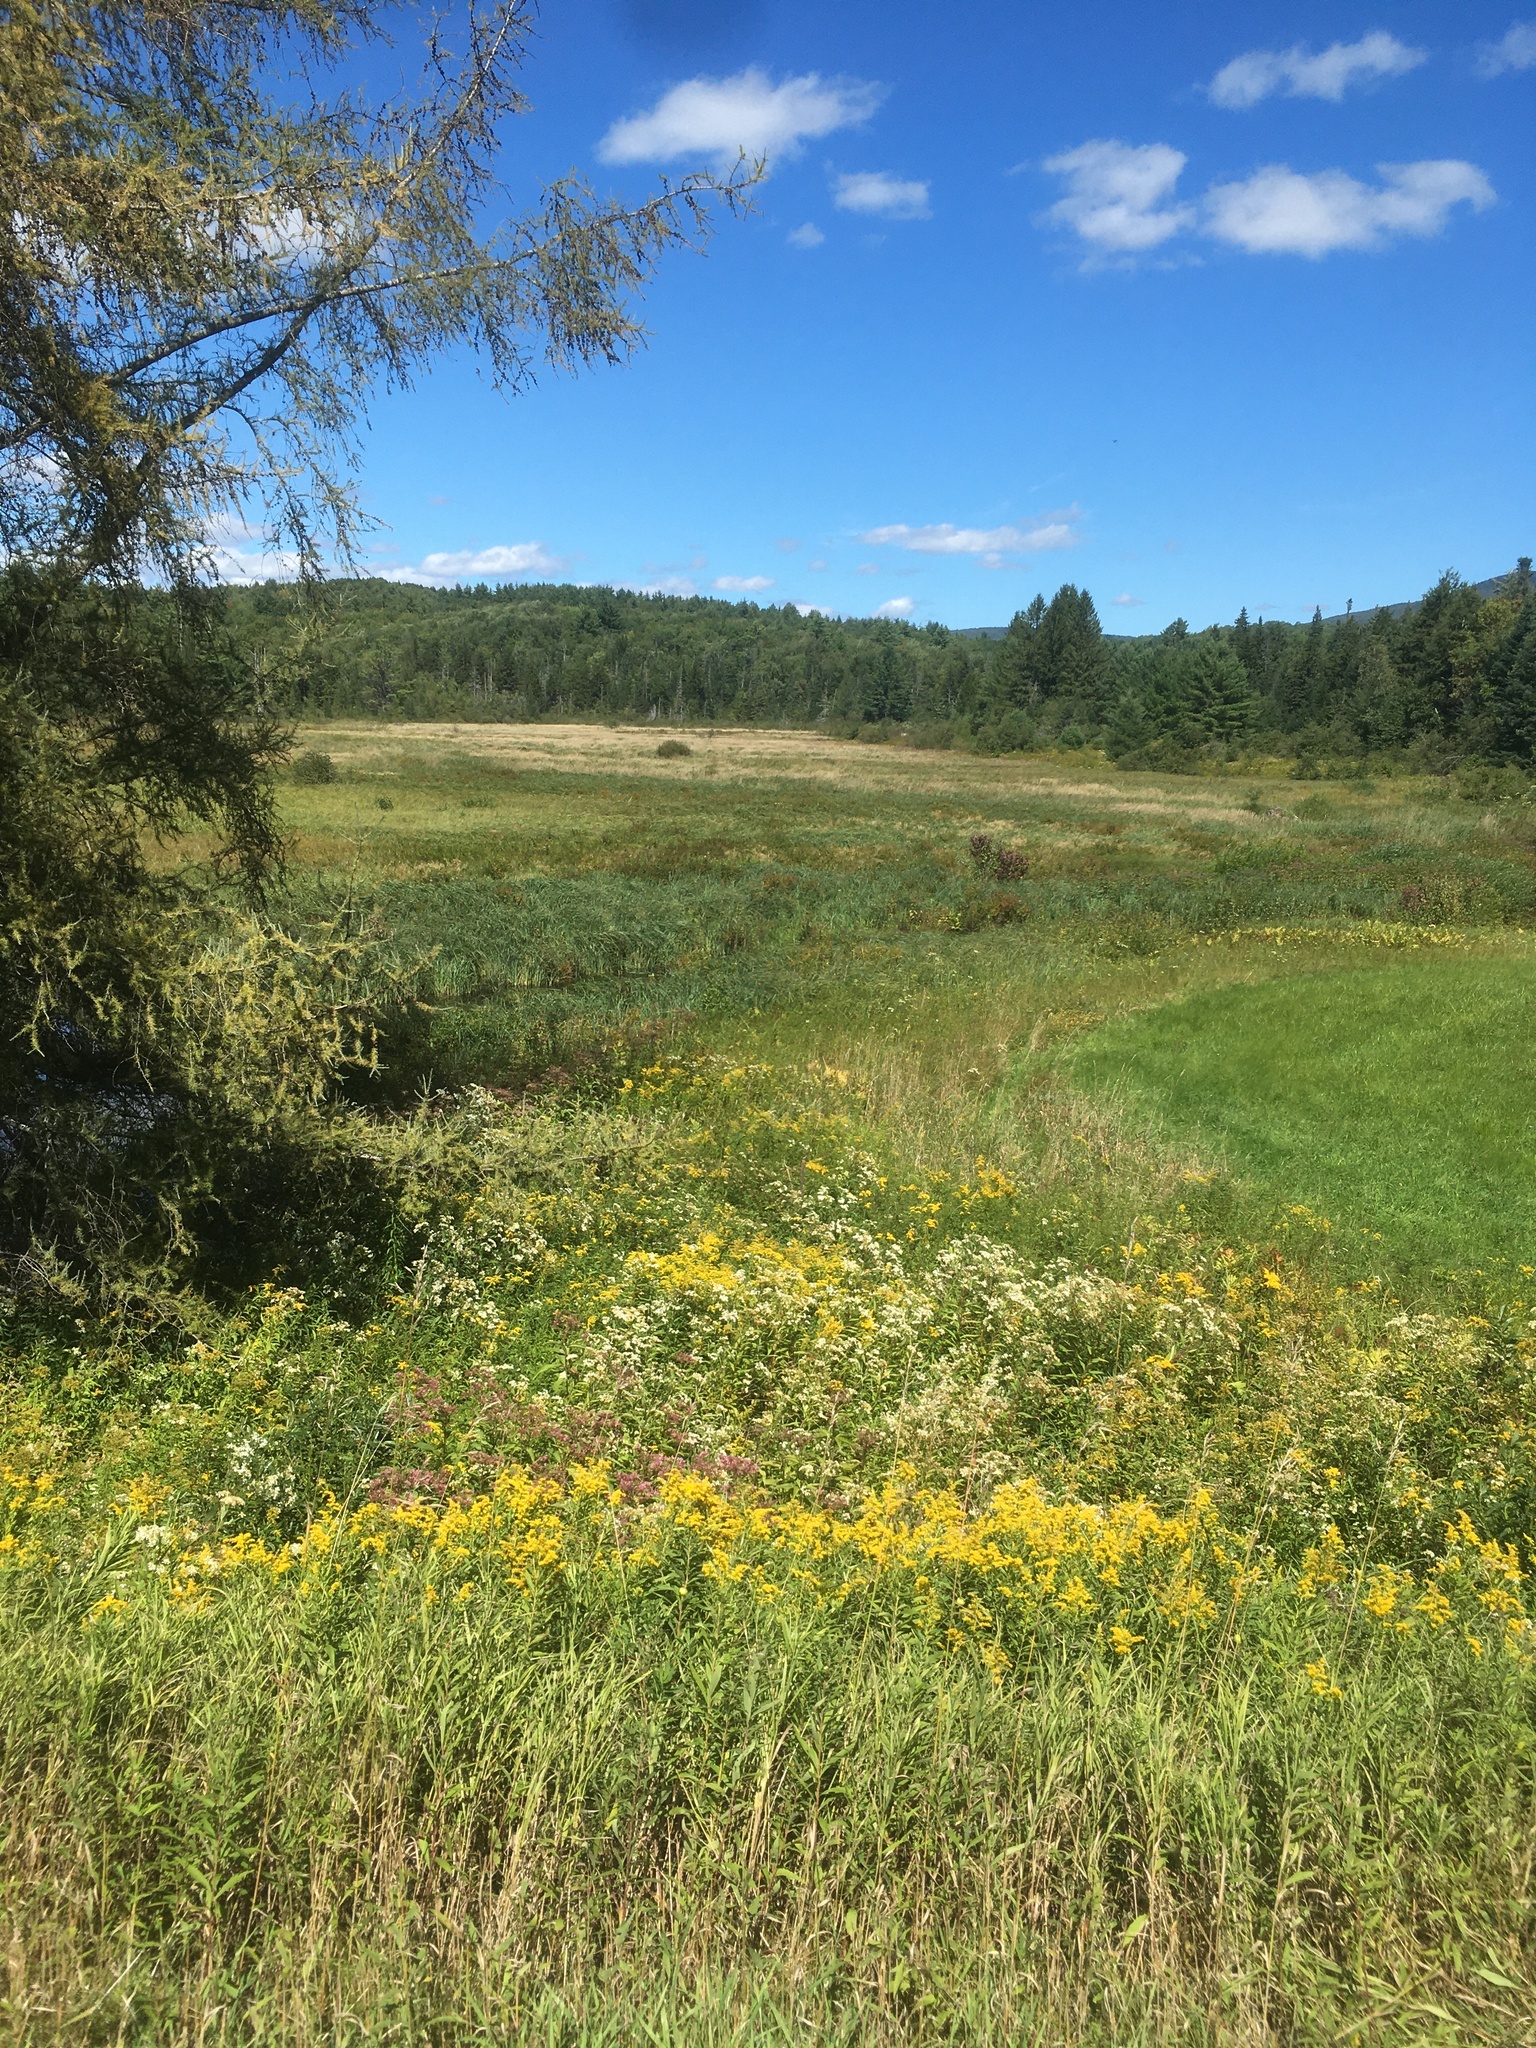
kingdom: Plantae
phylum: Tracheophyta
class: Magnoliopsida
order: Asterales
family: Asteraceae
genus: Doellingeria
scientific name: Doellingeria umbellata
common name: Flat-top white aster
